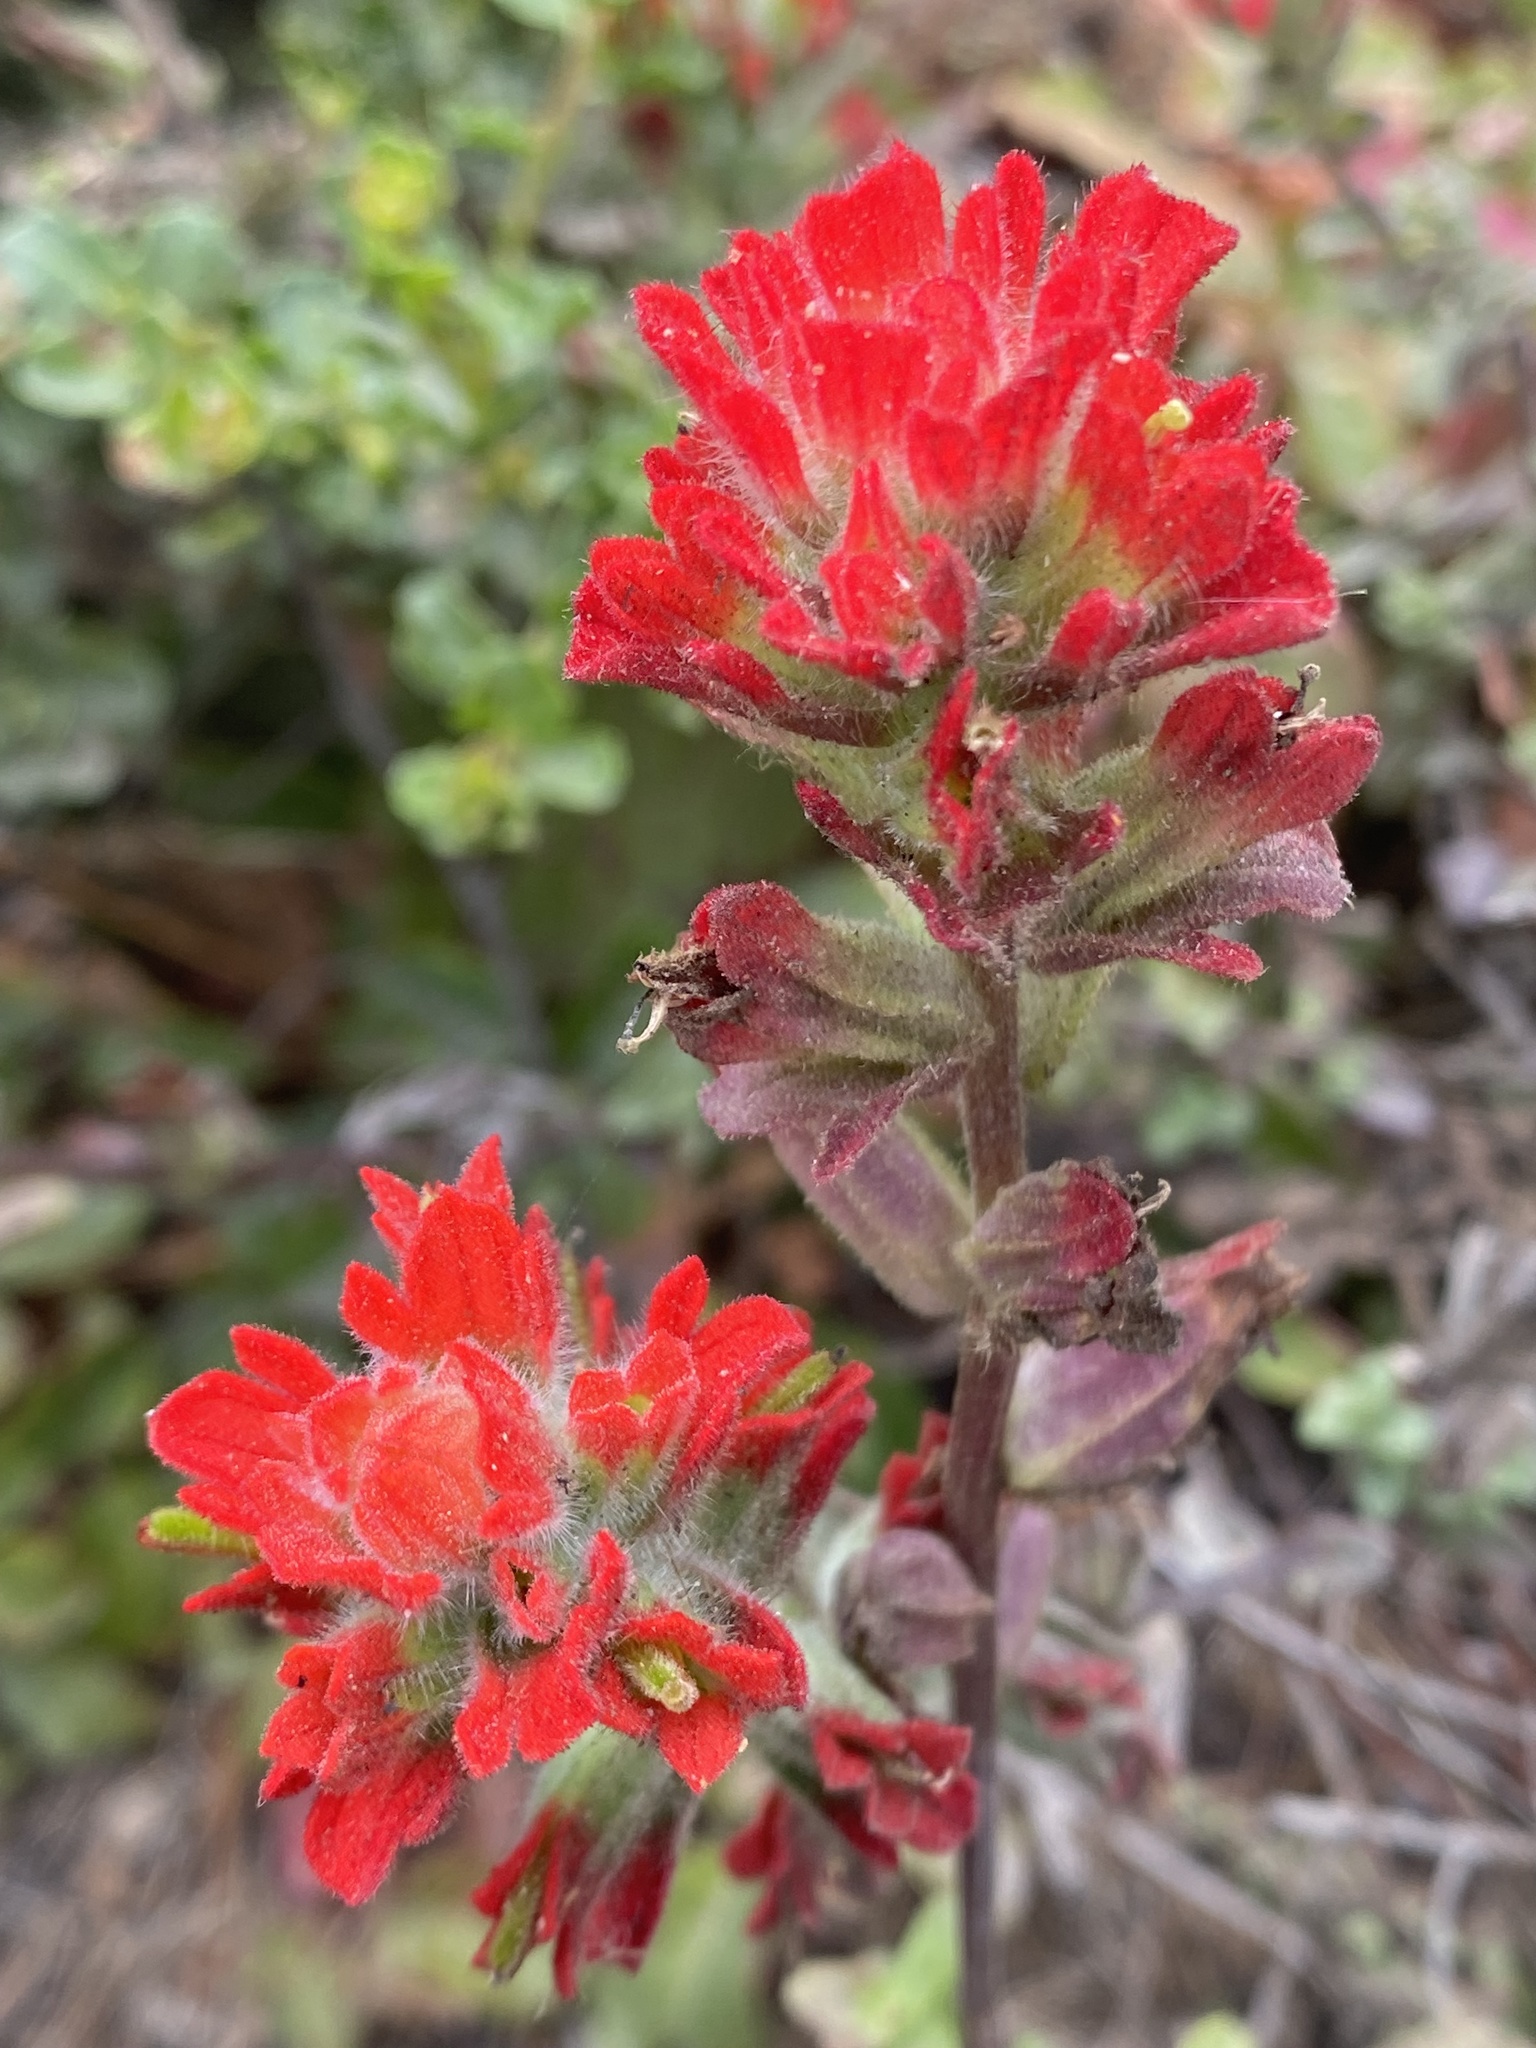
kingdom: Plantae
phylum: Tracheophyta
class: Magnoliopsida
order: Lamiales
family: Orobanchaceae
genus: Castilleja
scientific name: Castilleja latifolia
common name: Monterey indian paintbrush
